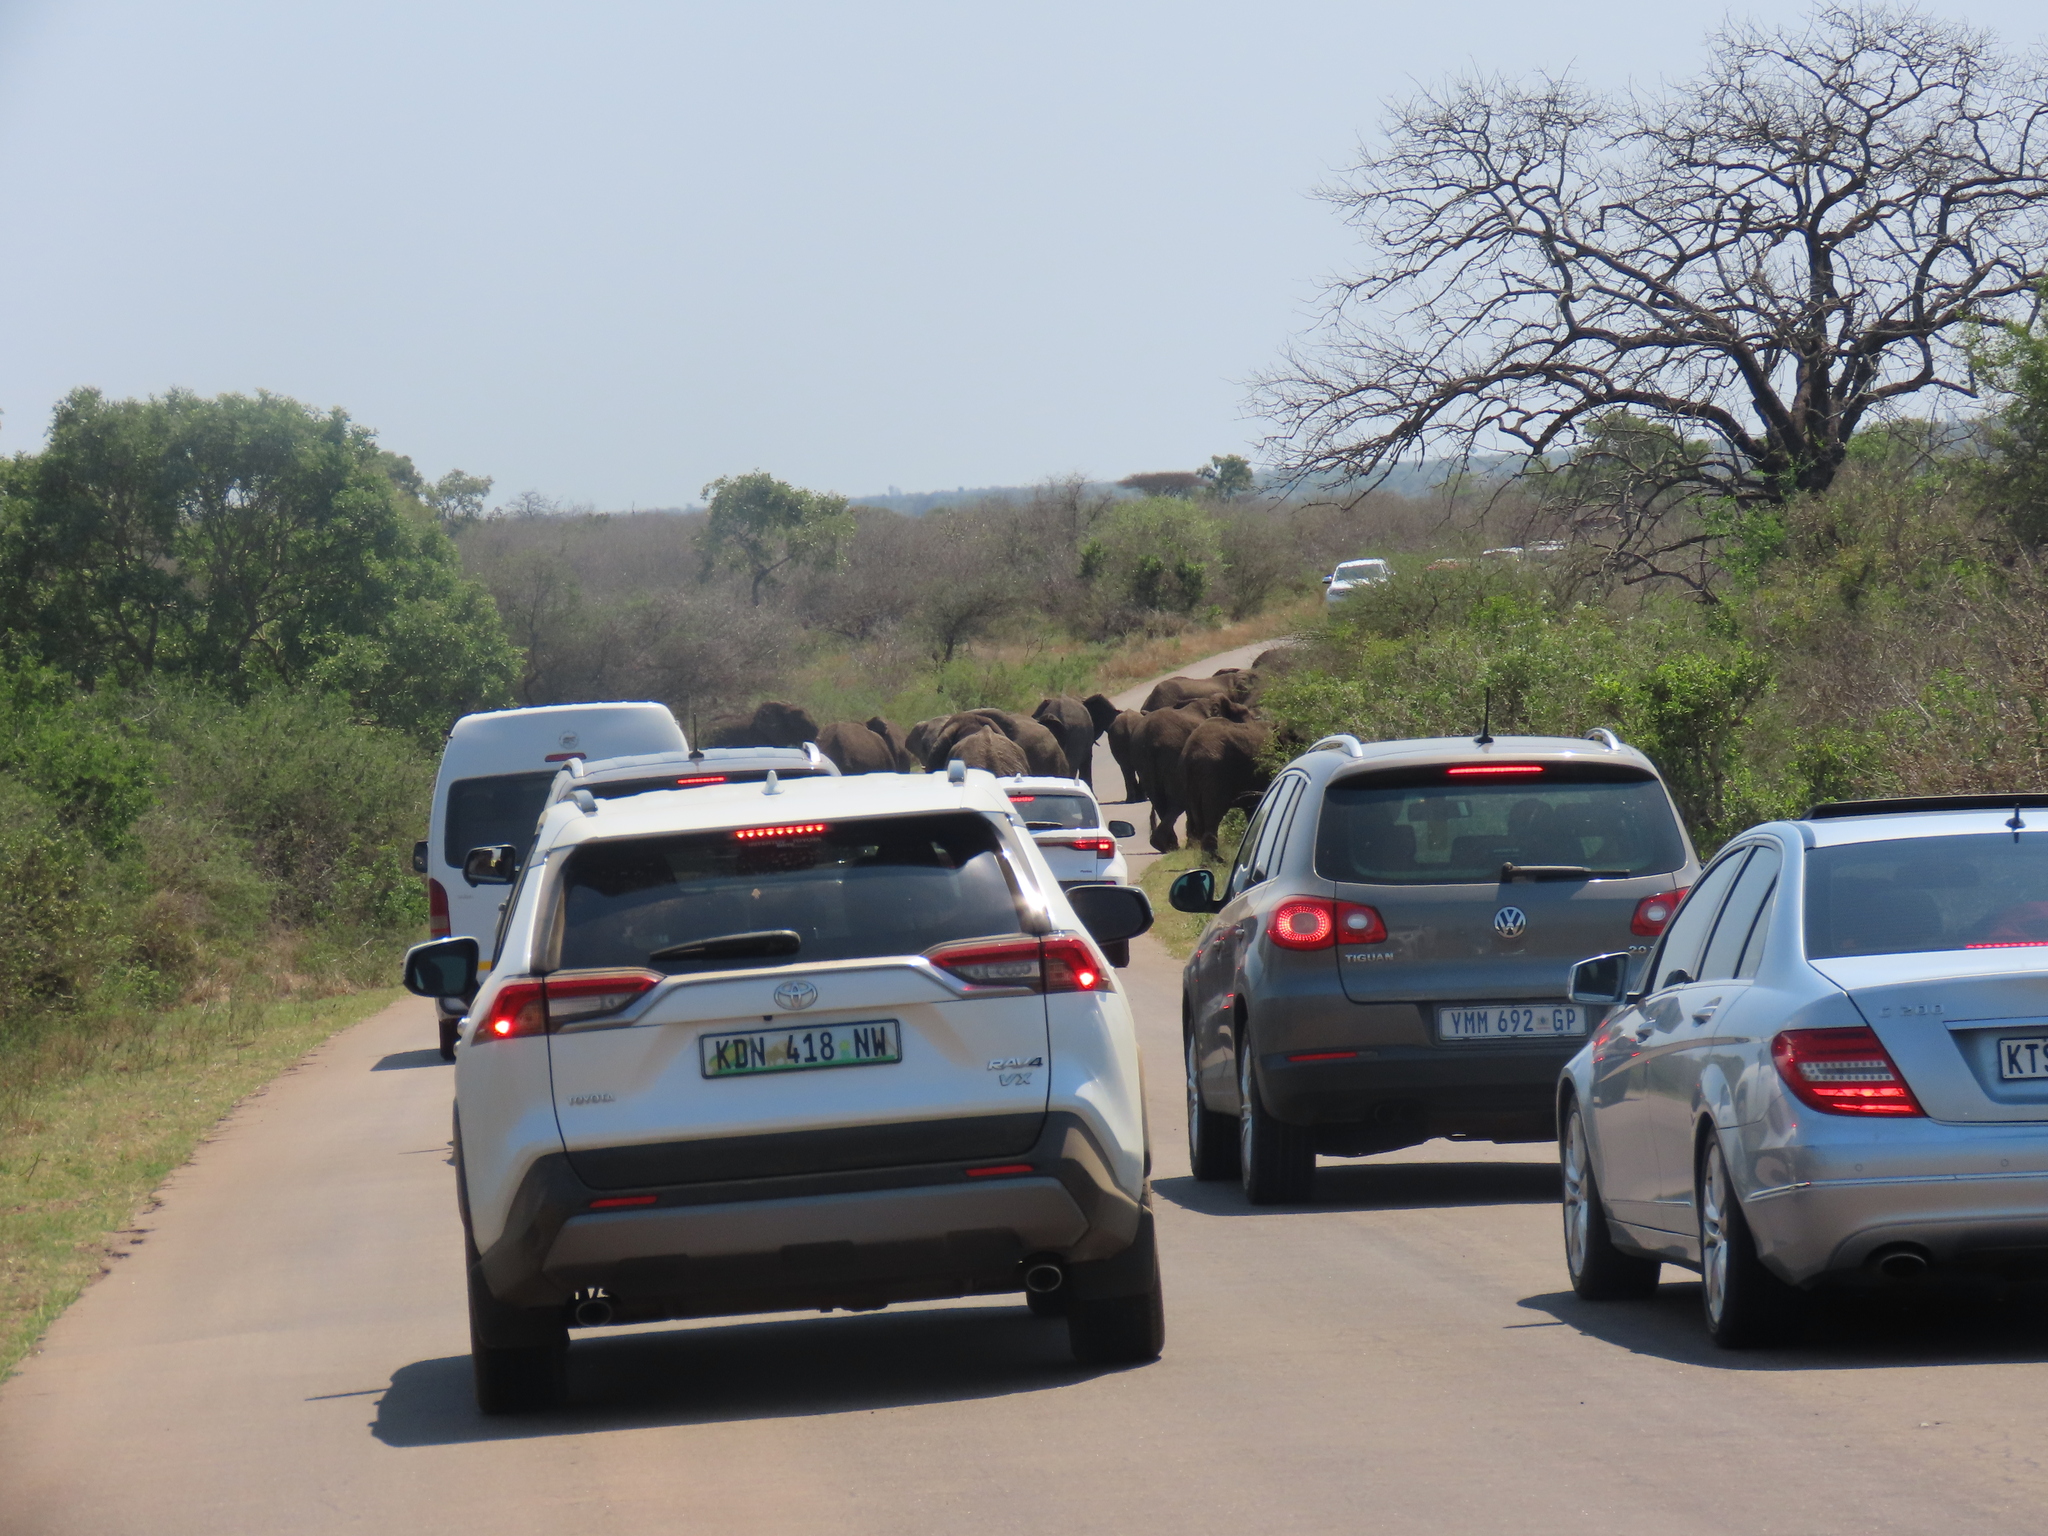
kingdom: Animalia
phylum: Chordata
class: Mammalia
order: Proboscidea
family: Elephantidae
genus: Loxodonta
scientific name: Loxodonta africana
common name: African elephant
